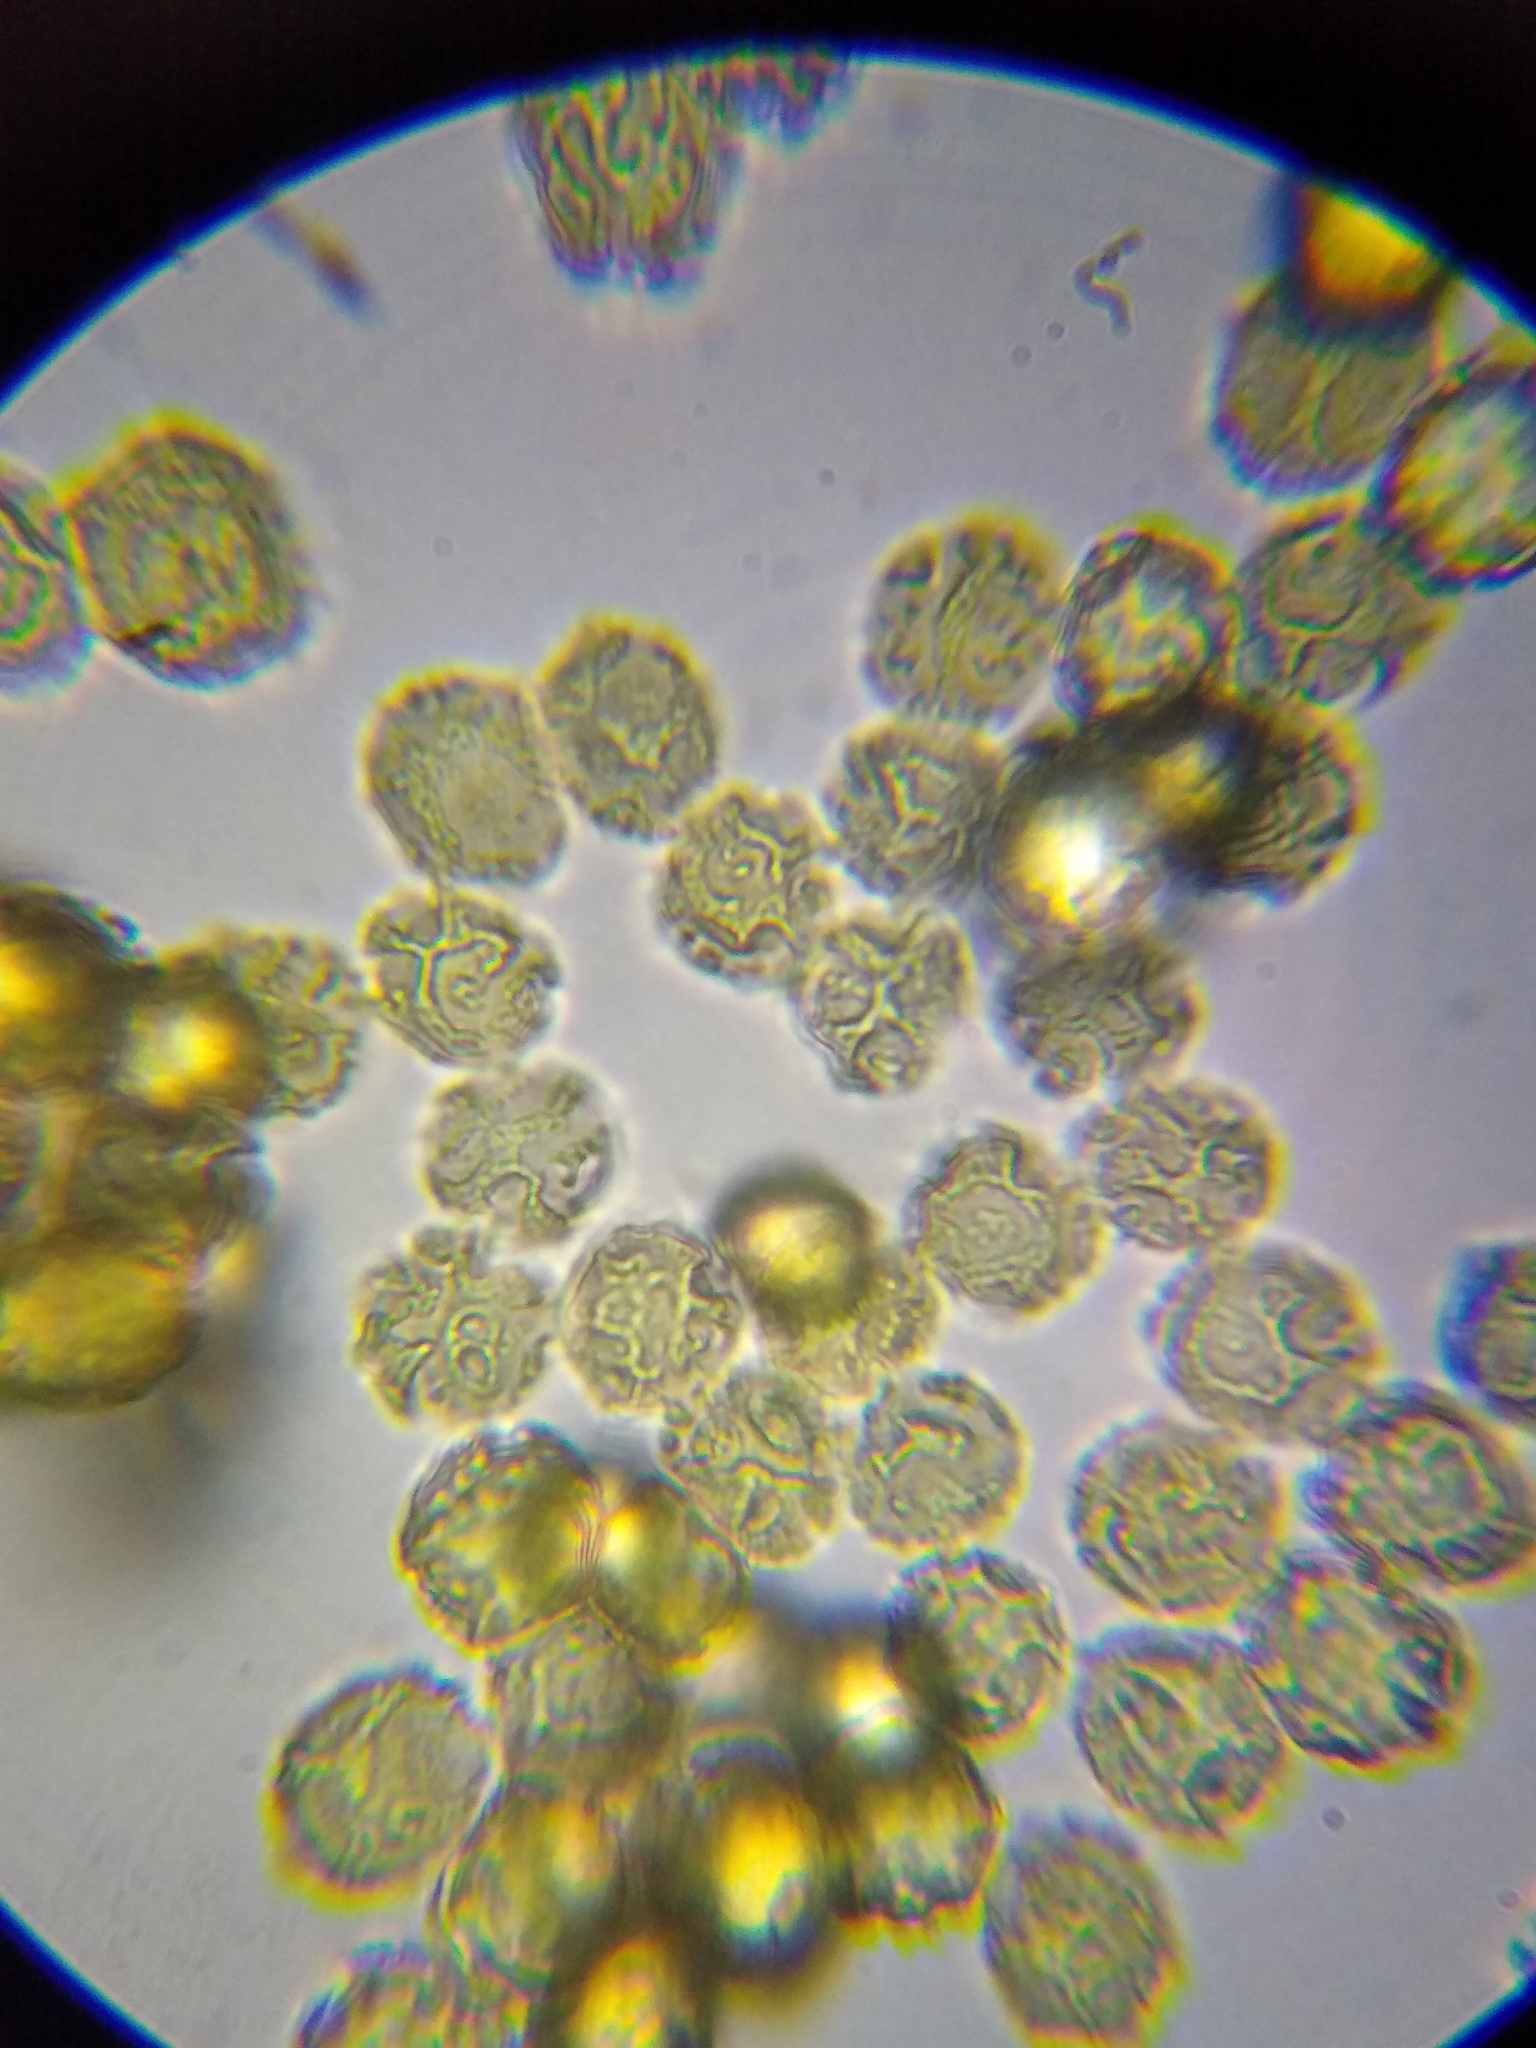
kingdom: Protozoa
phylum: Mycetozoa
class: Myxomycetes
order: Trichiales
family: Trichiaceae
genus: Oligonema
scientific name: Oligonema persimile
